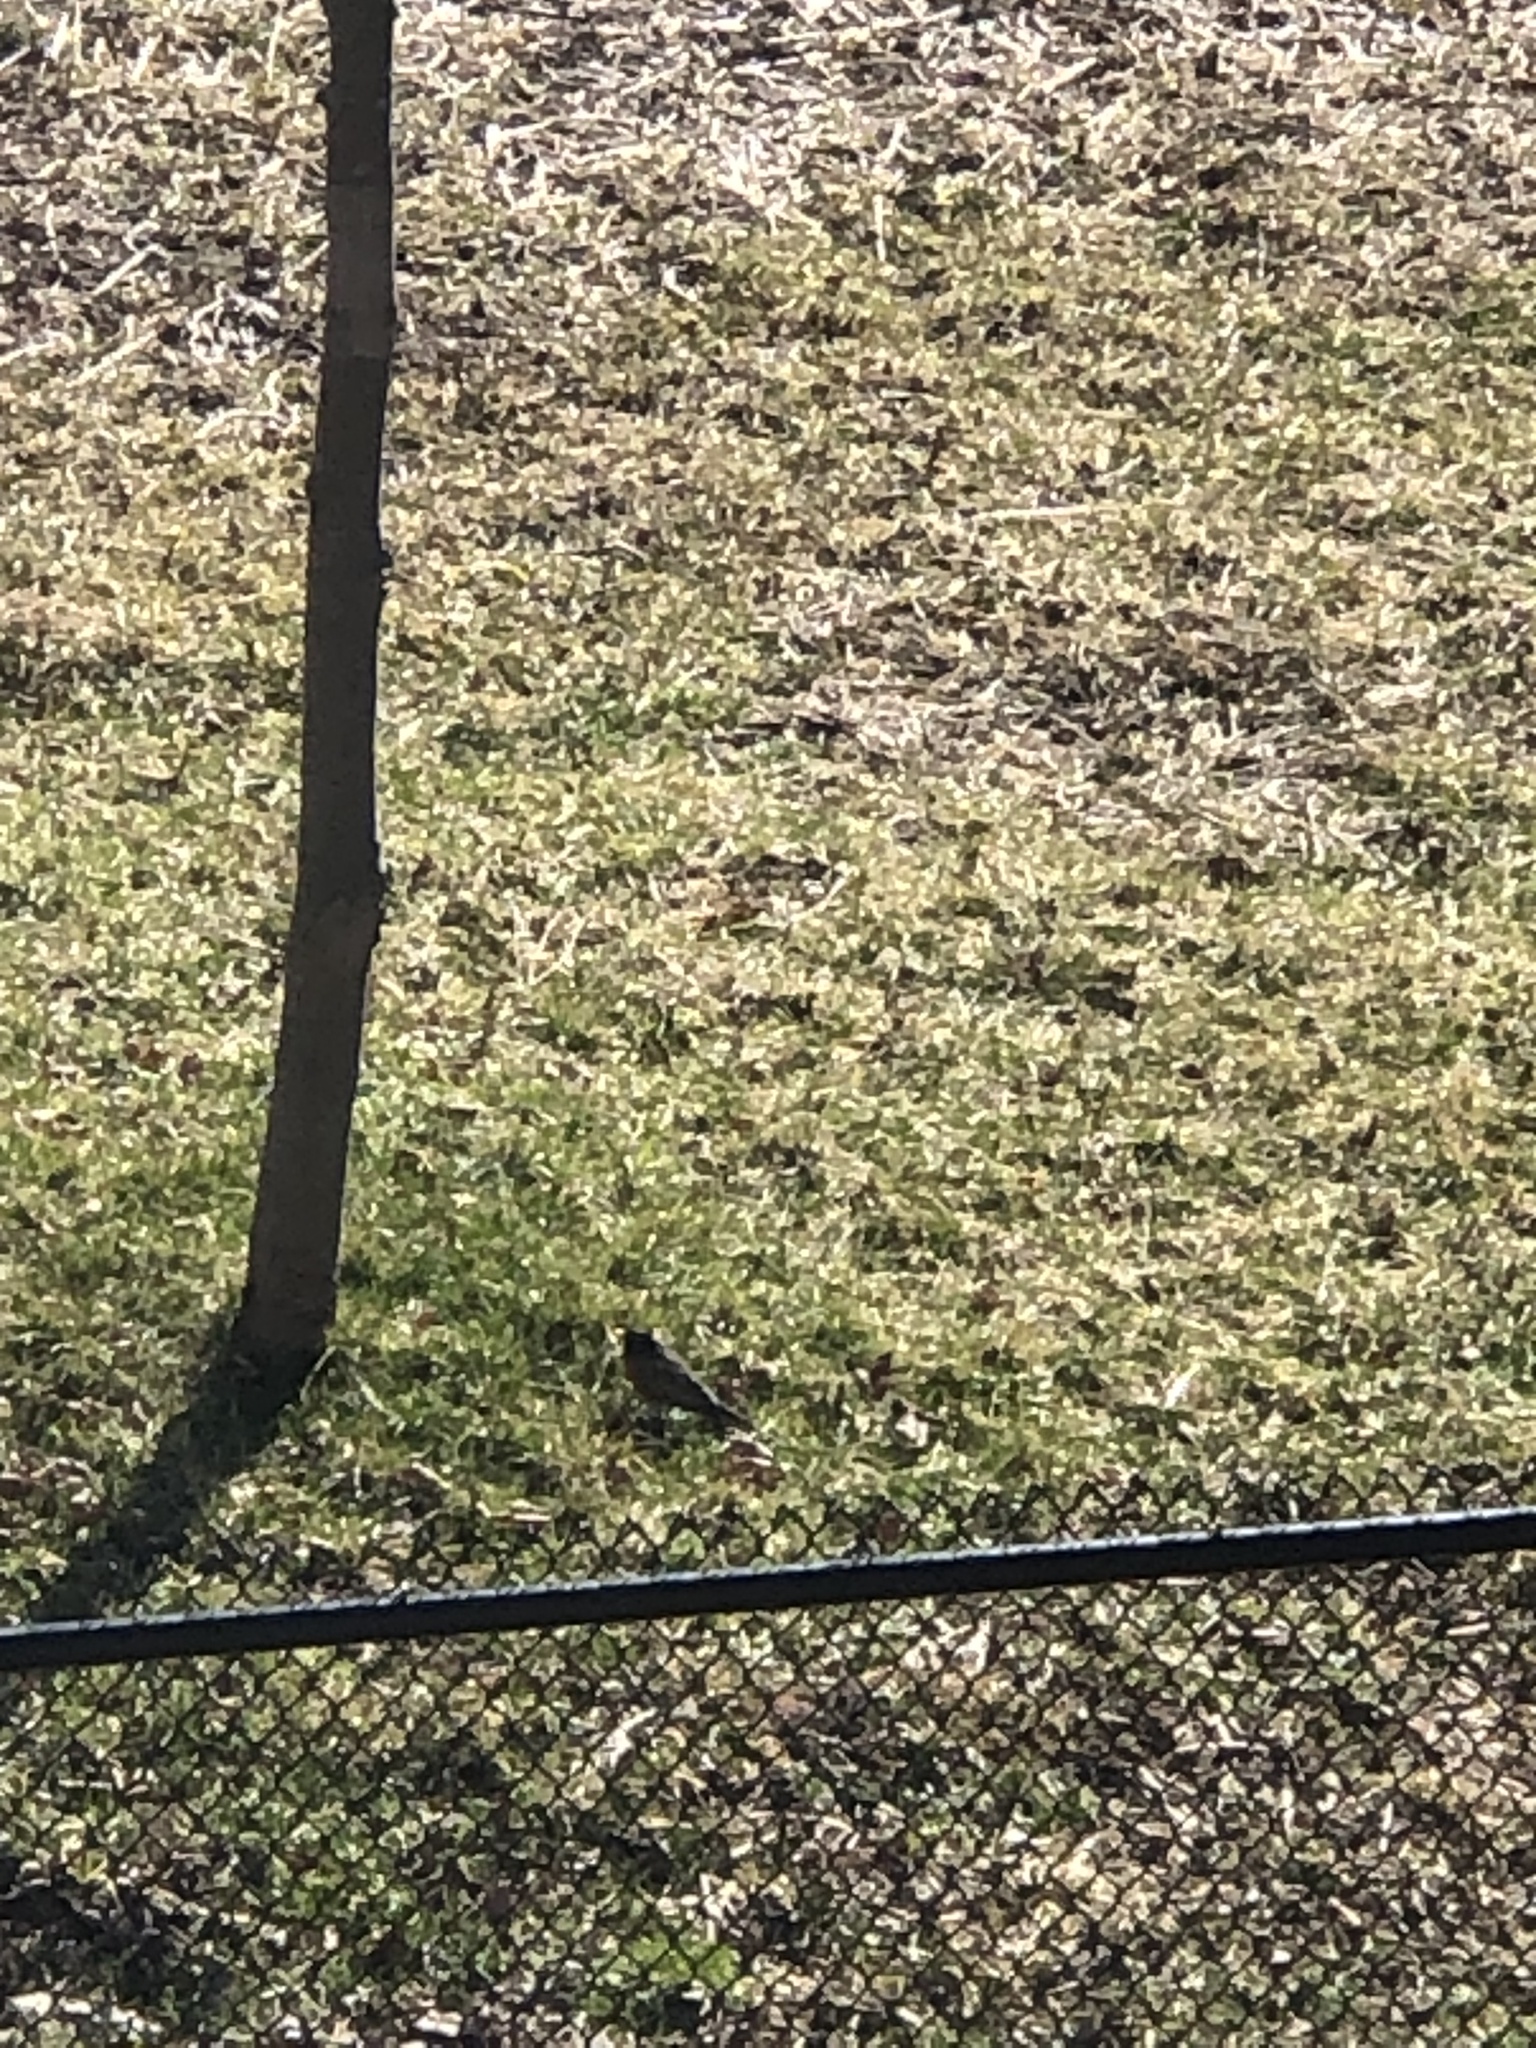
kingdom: Animalia
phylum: Chordata
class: Aves
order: Passeriformes
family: Turdidae
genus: Turdus
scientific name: Turdus migratorius
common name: American robin
